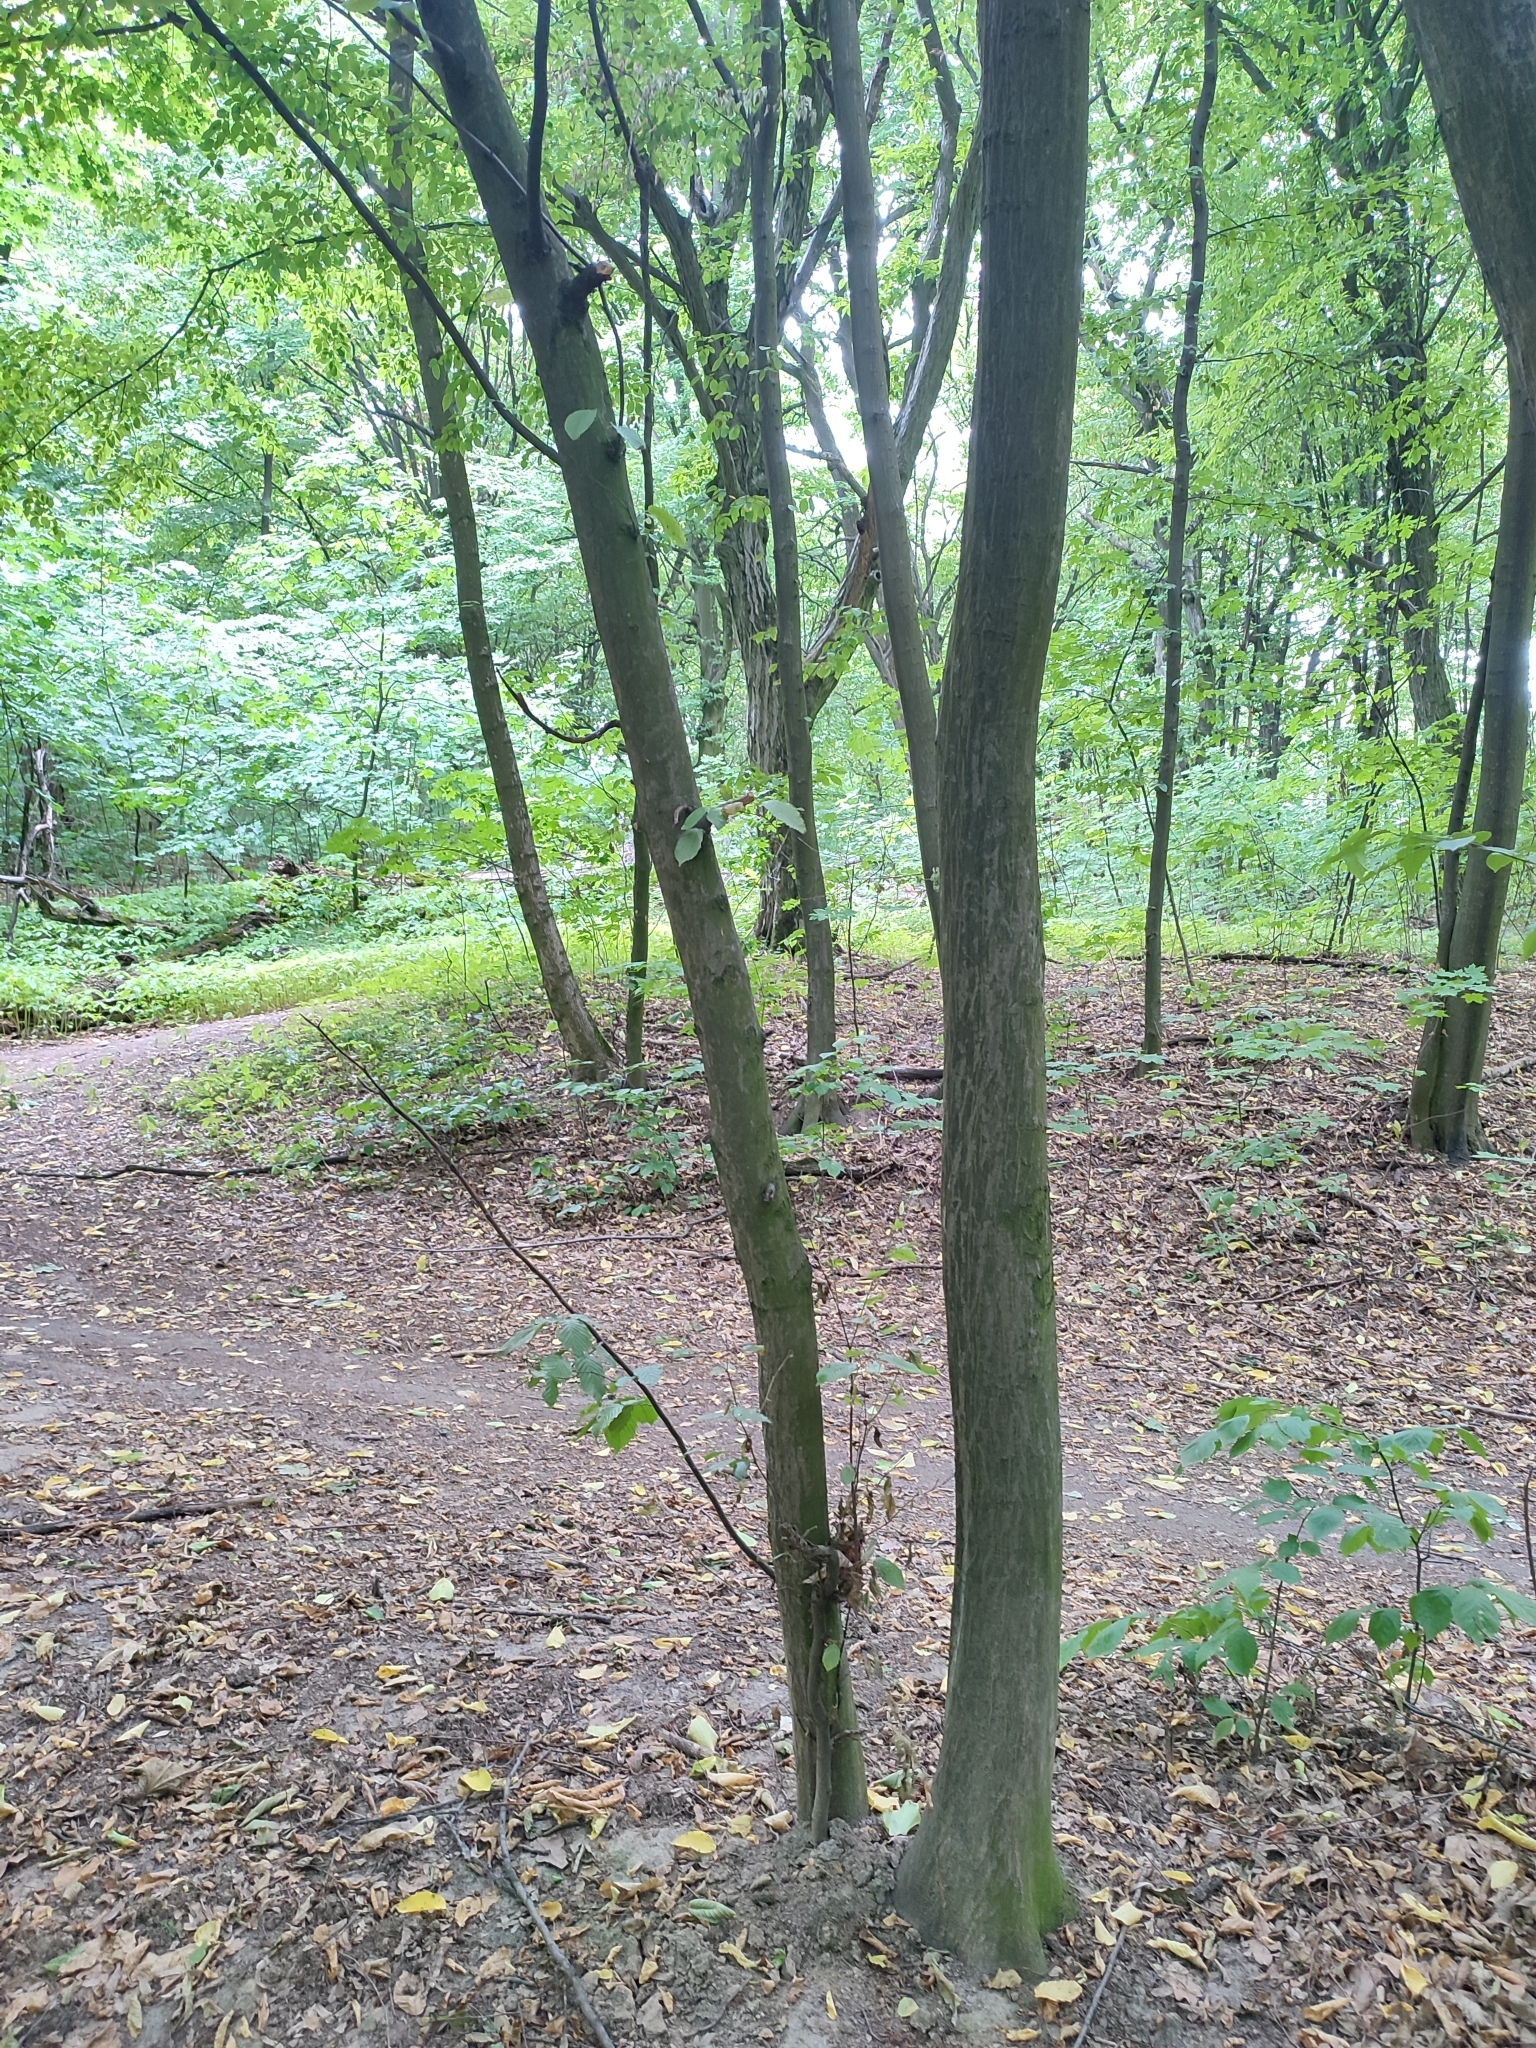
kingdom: Plantae
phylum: Tracheophyta
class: Magnoliopsida
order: Fagales
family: Betulaceae
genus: Carpinus
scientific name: Carpinus betulus
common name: Hornbeam
